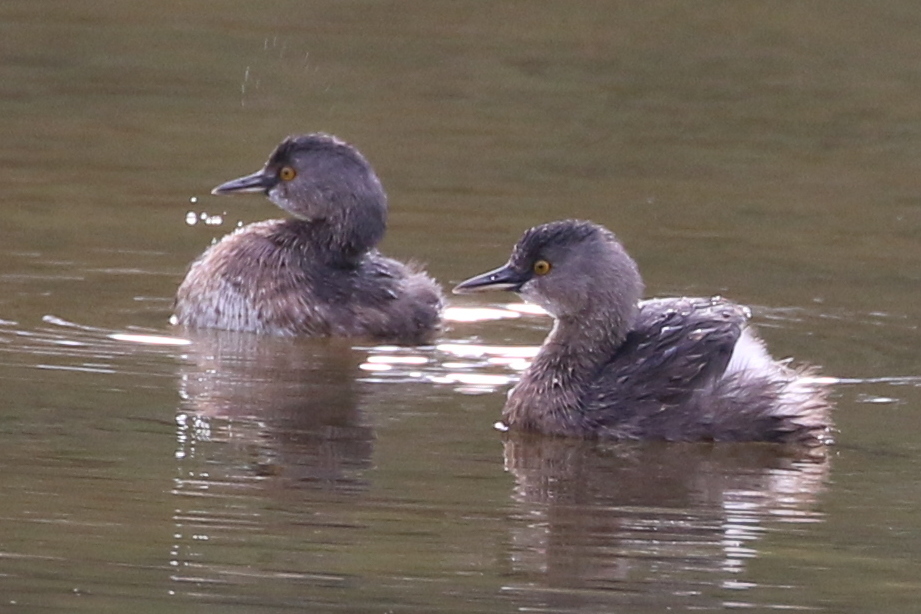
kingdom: Animalia
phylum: Chordata
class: Aves
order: Podicipediformes
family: Podicipedidae
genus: Tachybaptus
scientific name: Tachybaptus dominicus
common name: Least grebe
